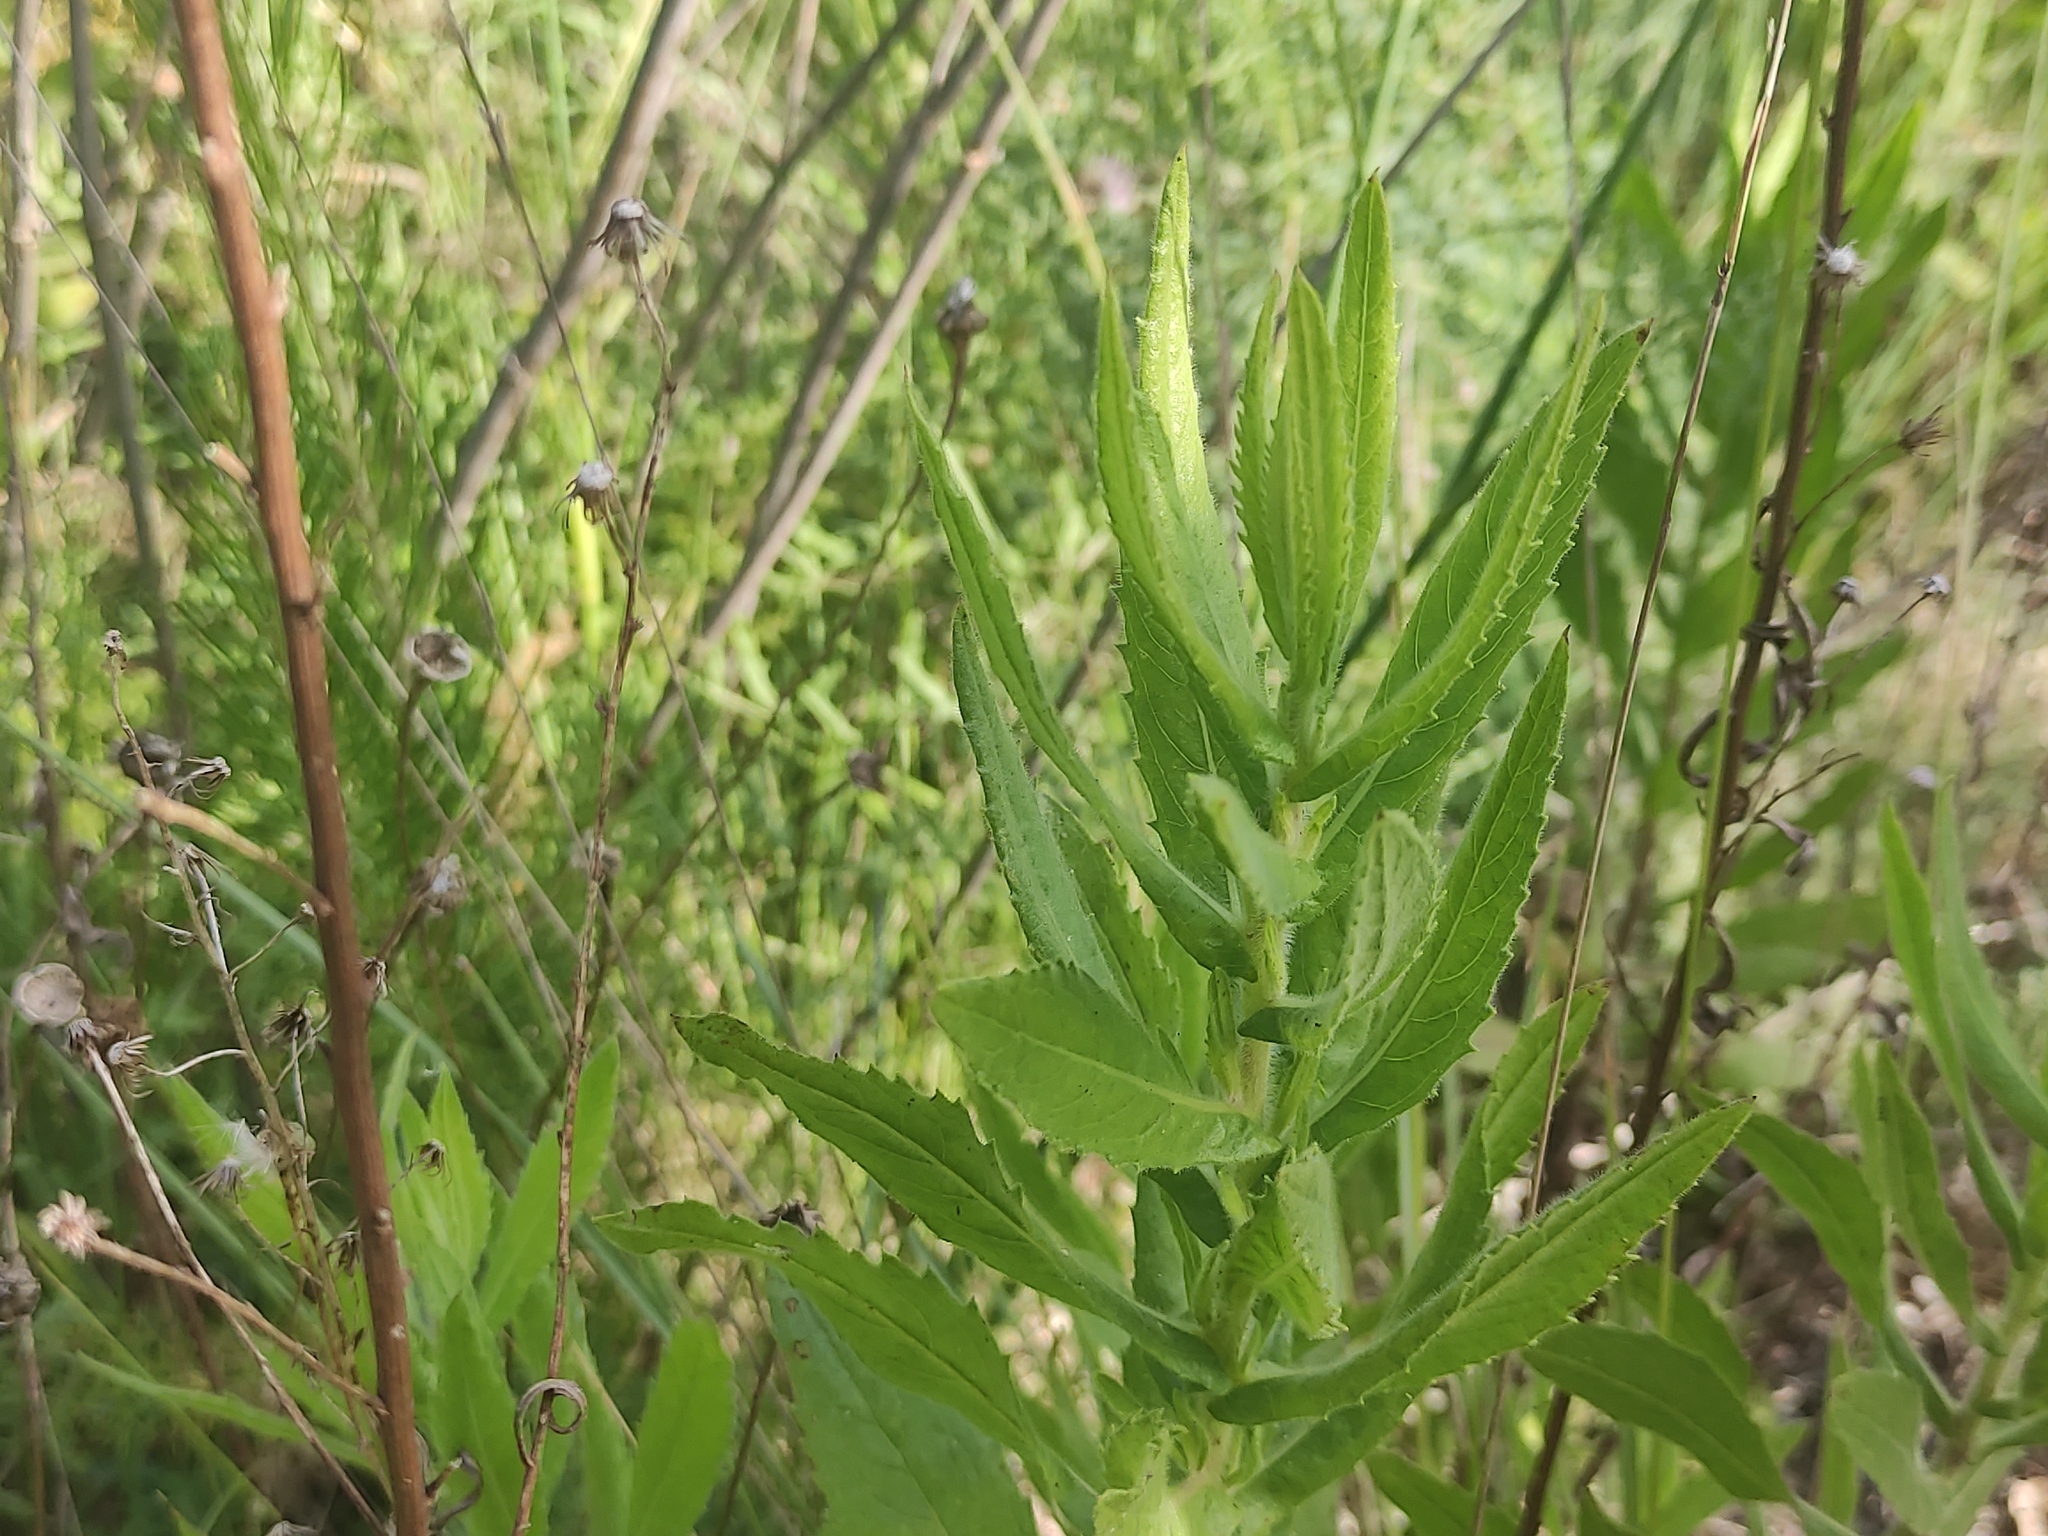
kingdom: Plantae
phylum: Tracheophyta
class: Magnoliopsida
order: Asterales
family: Asteraceae
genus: Dittrichia
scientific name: Dittrichia viscosa
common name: Woody fleabane
